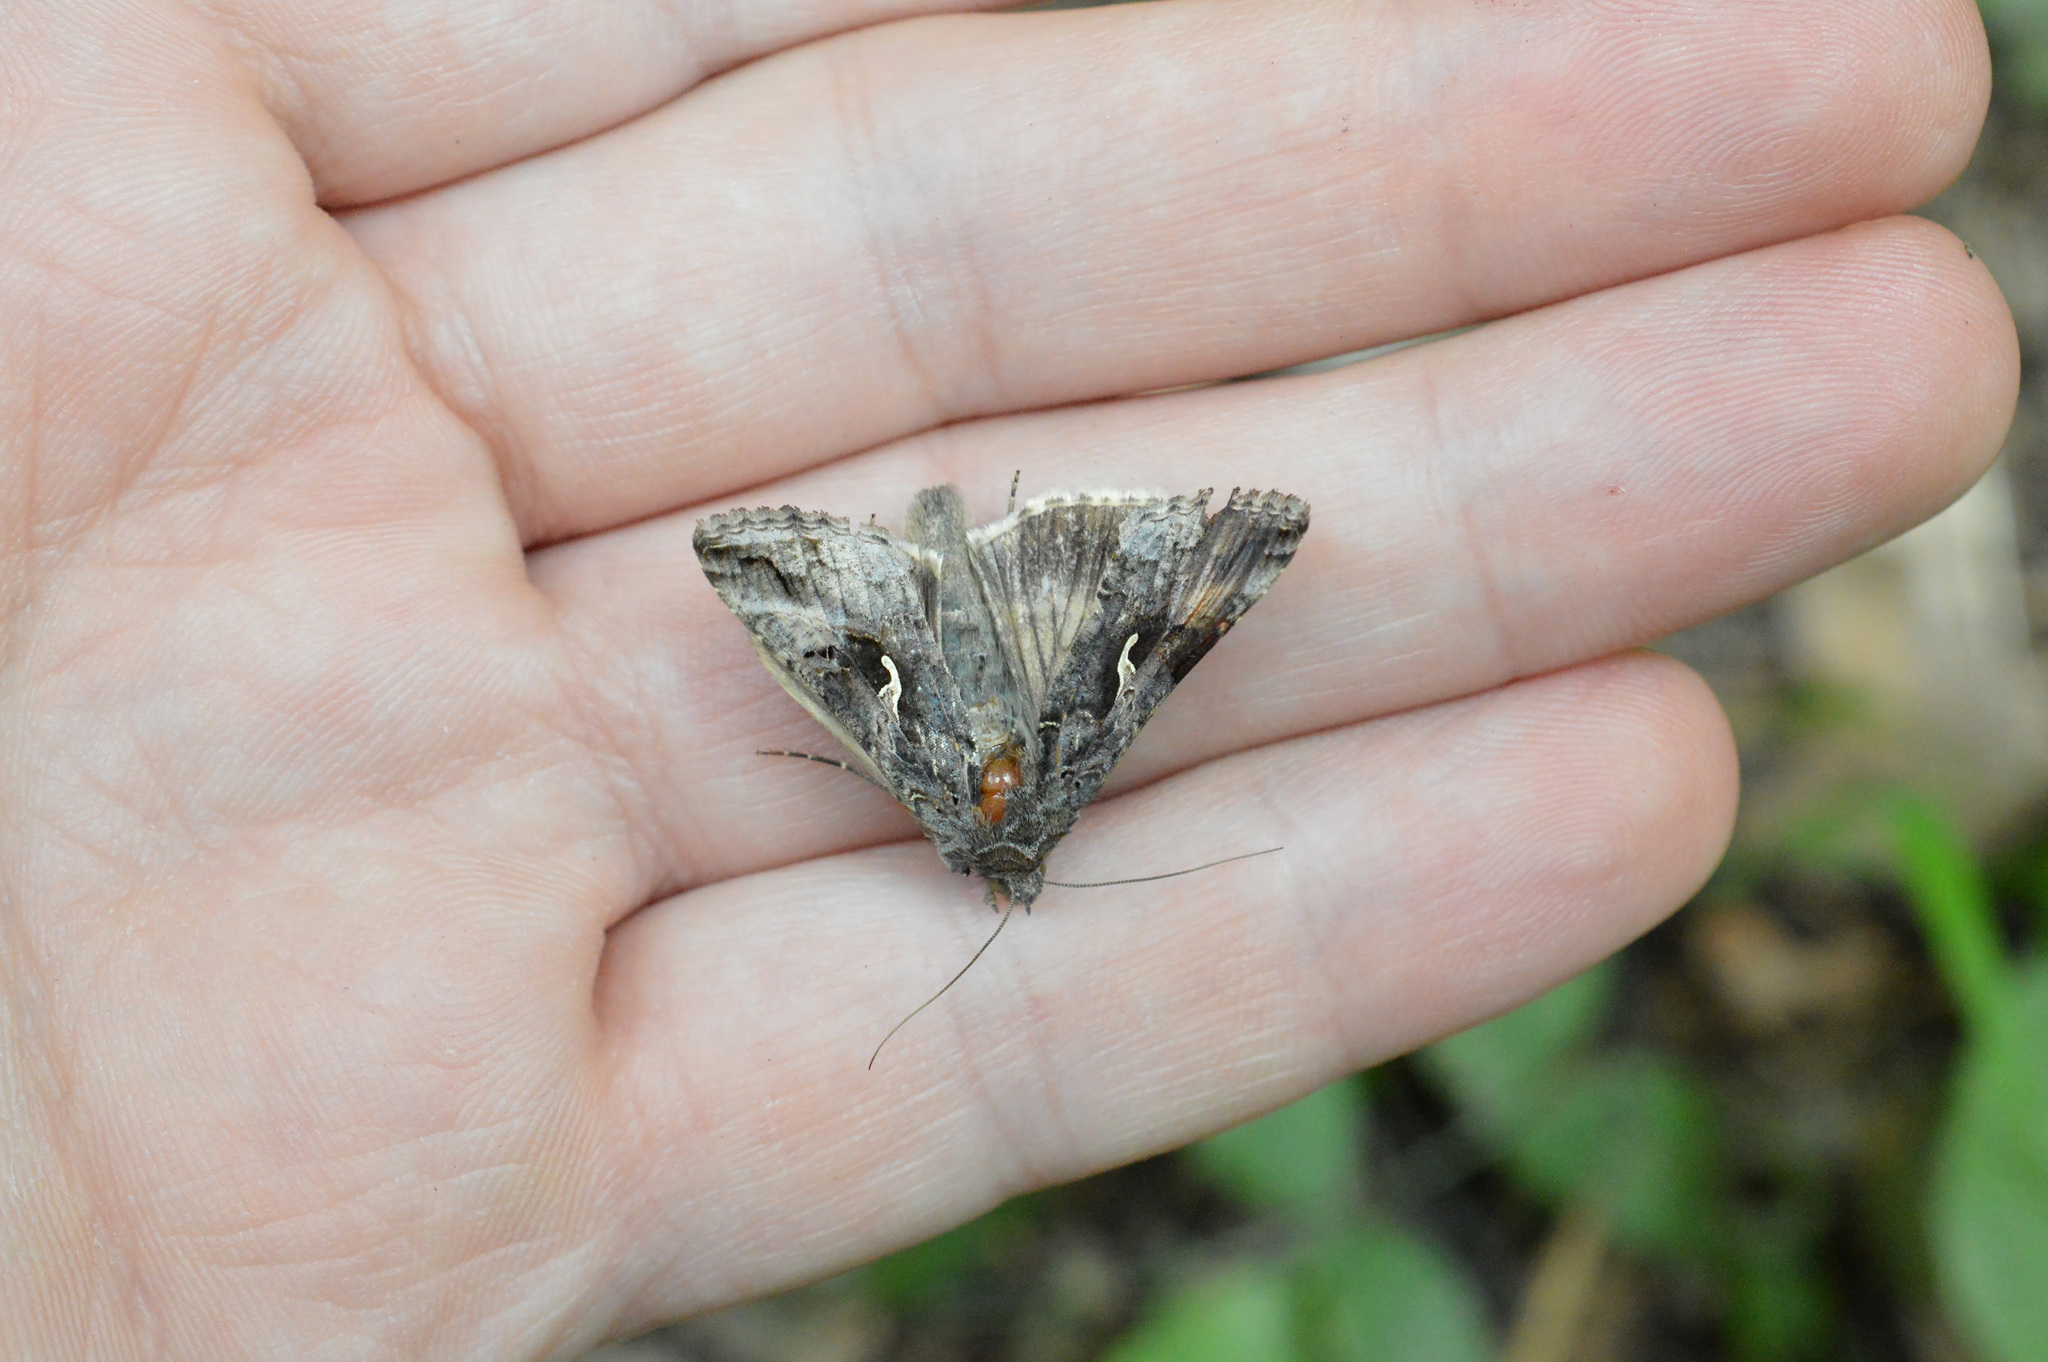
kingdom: Animalia
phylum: Arthropoda
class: Insecta
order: Lepidoptera
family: Noctuidae
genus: Autographa
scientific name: Autographa gamma
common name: Silver y
